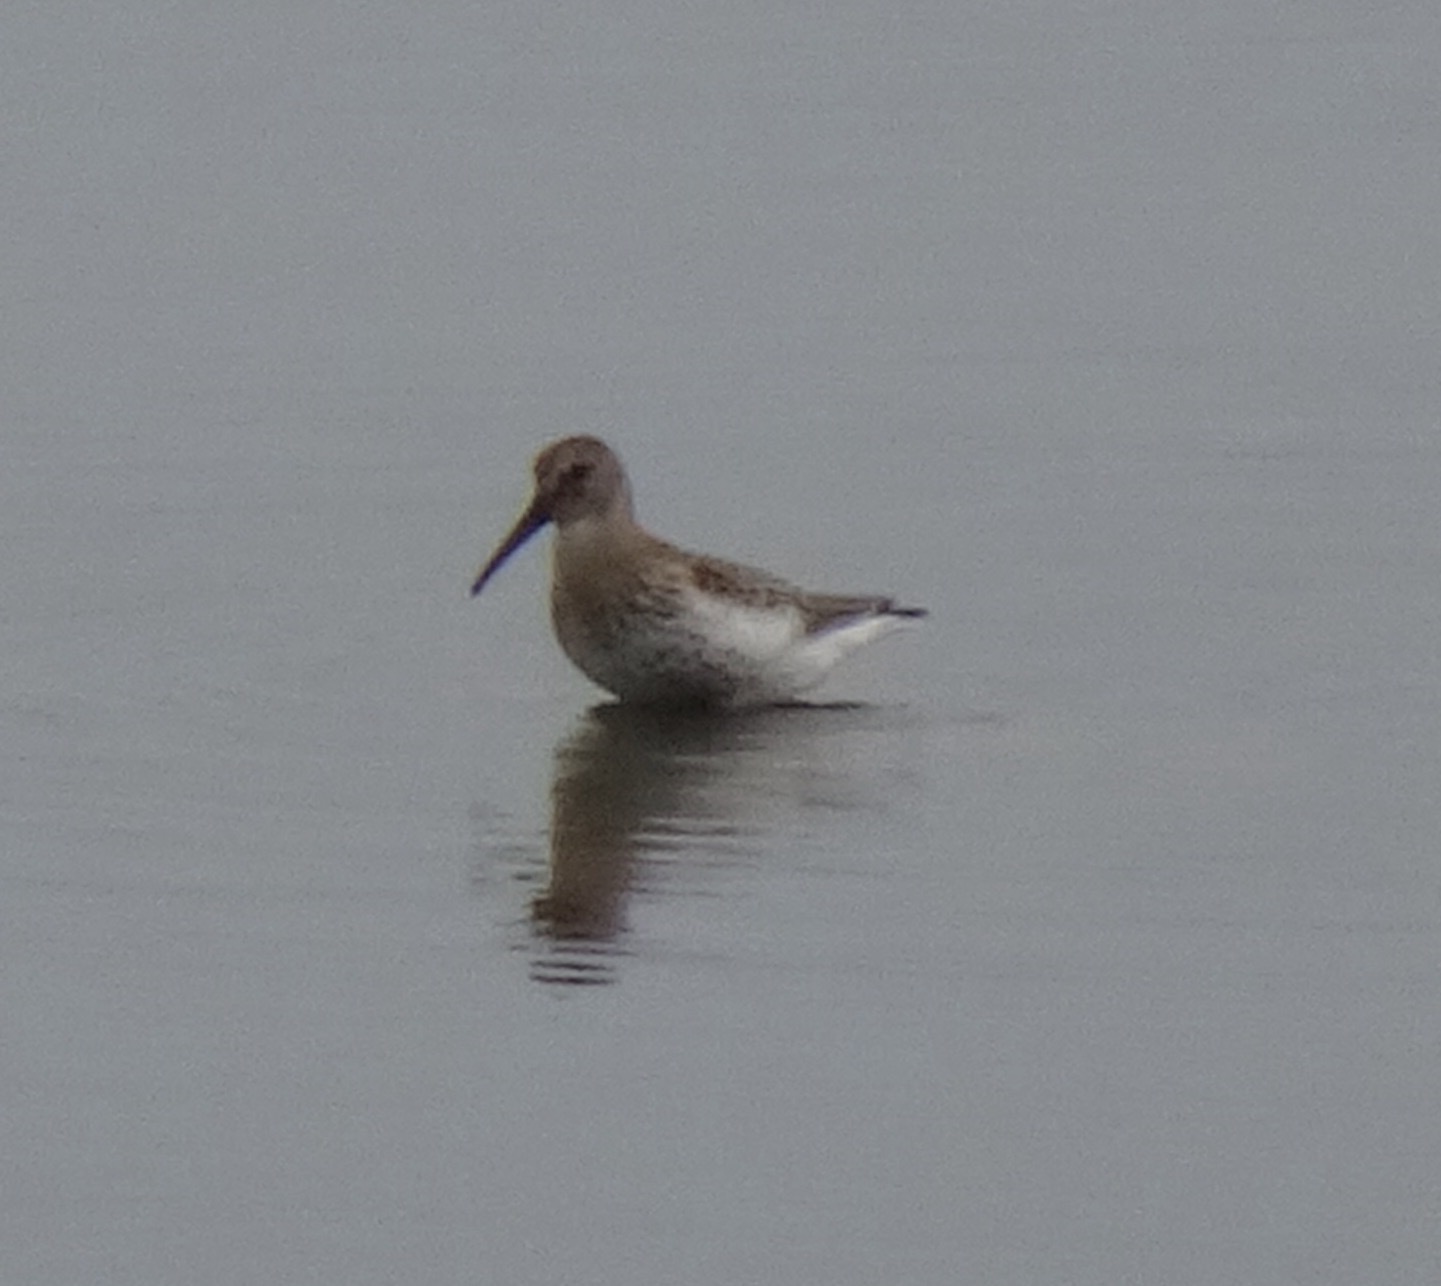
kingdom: Animalia
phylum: Chordata
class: Aves
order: Charadriiformes
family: Scolopacidae
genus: Calidris
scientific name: Calidris alpina
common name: Dunlin
